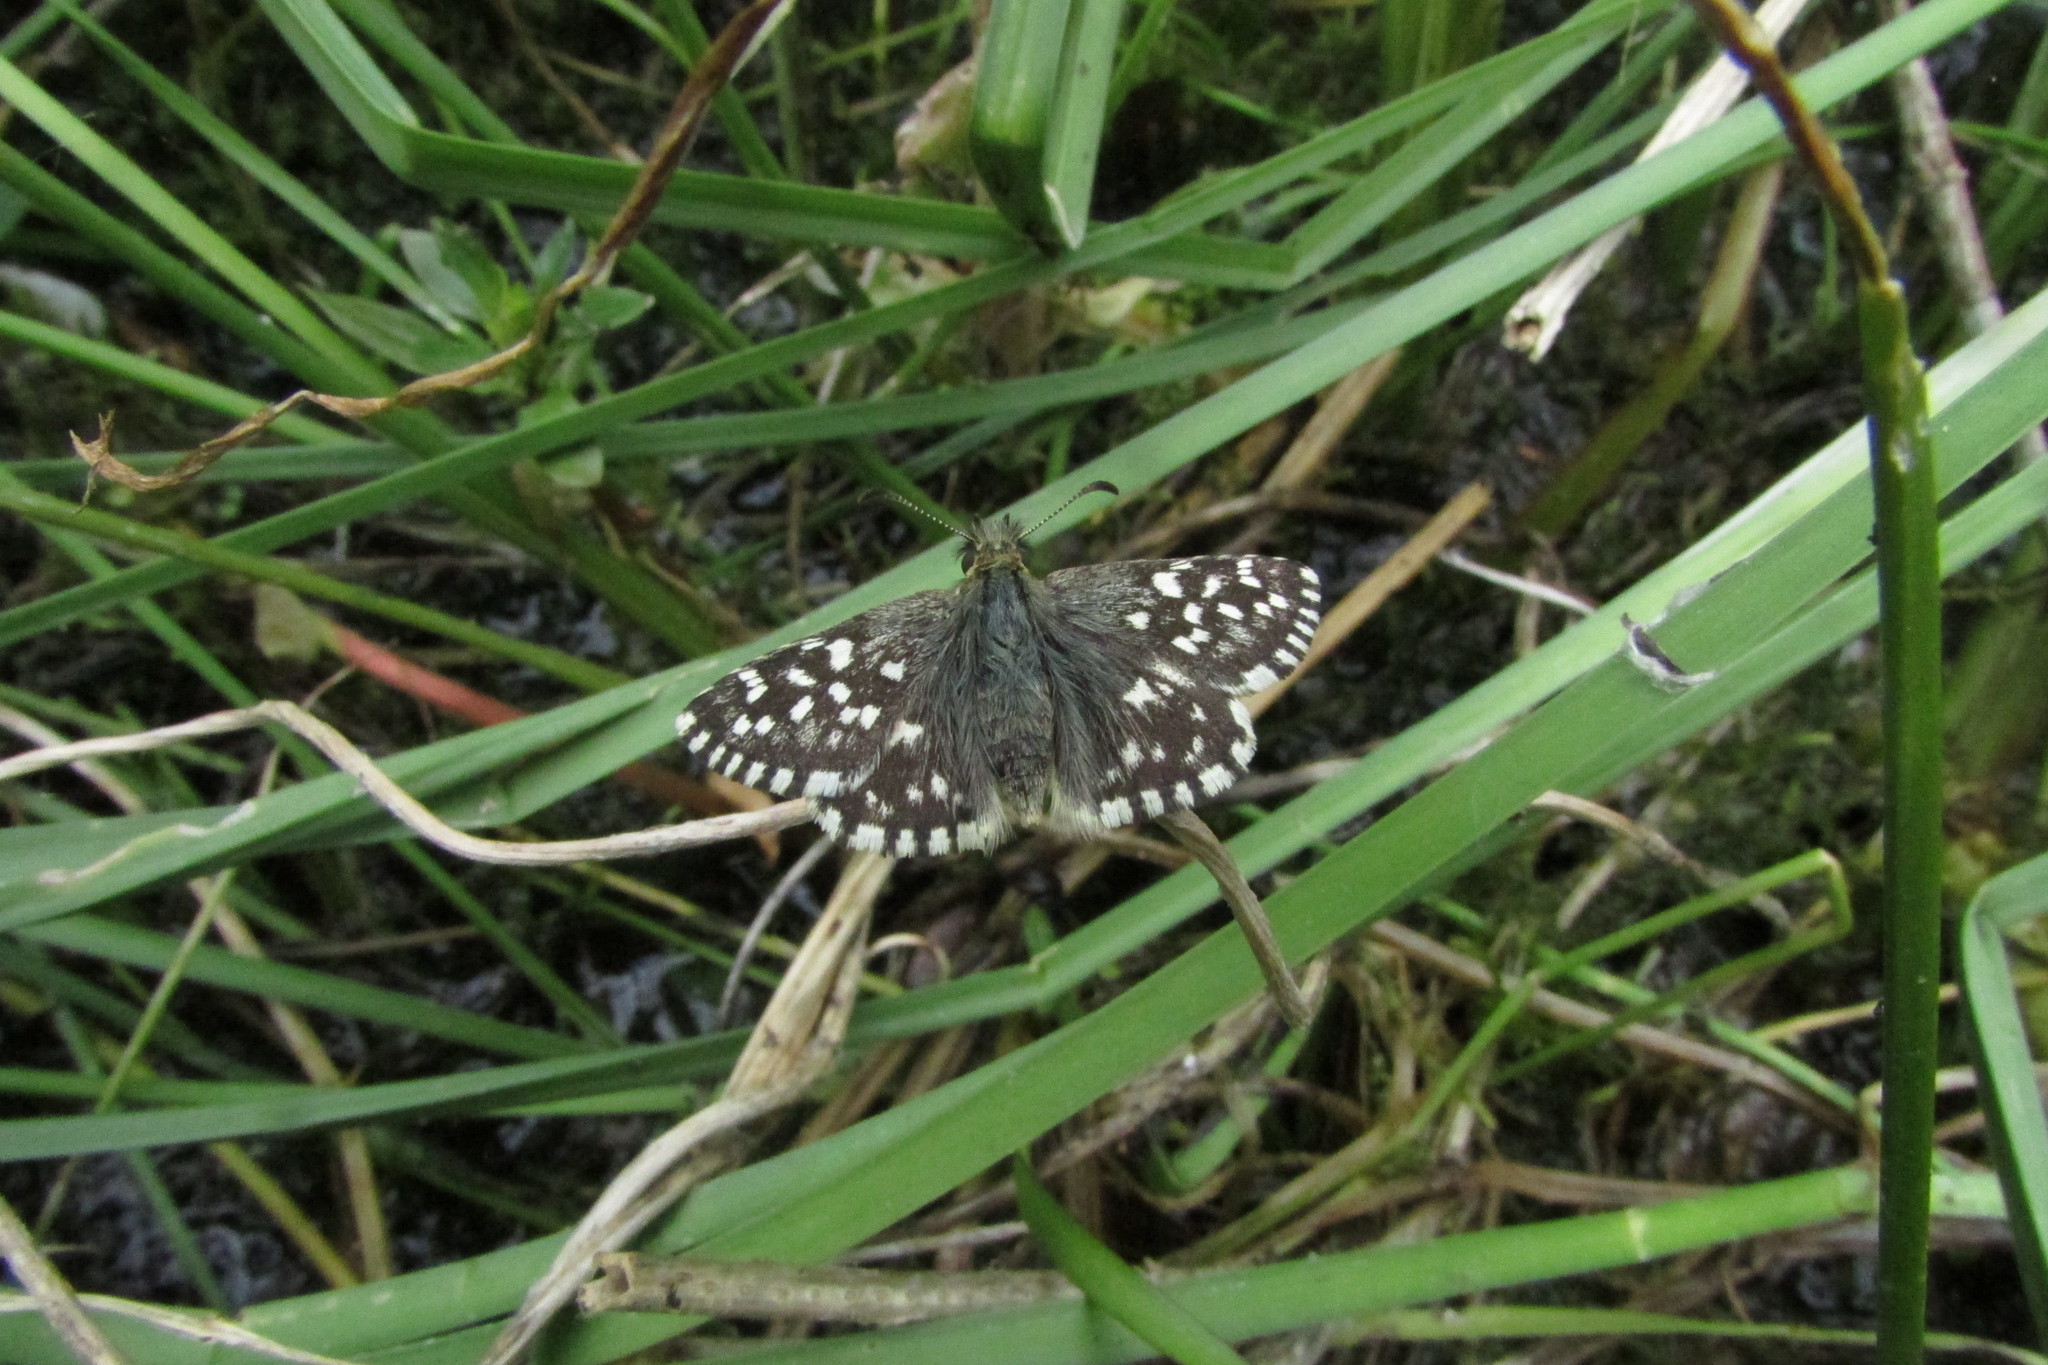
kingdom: Animalia
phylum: Arthropoda
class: Insecta
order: Lepidoptera
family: Hesperiidae
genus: Pyrgus
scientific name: Pyrgus malvae
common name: Grizzled skipper
